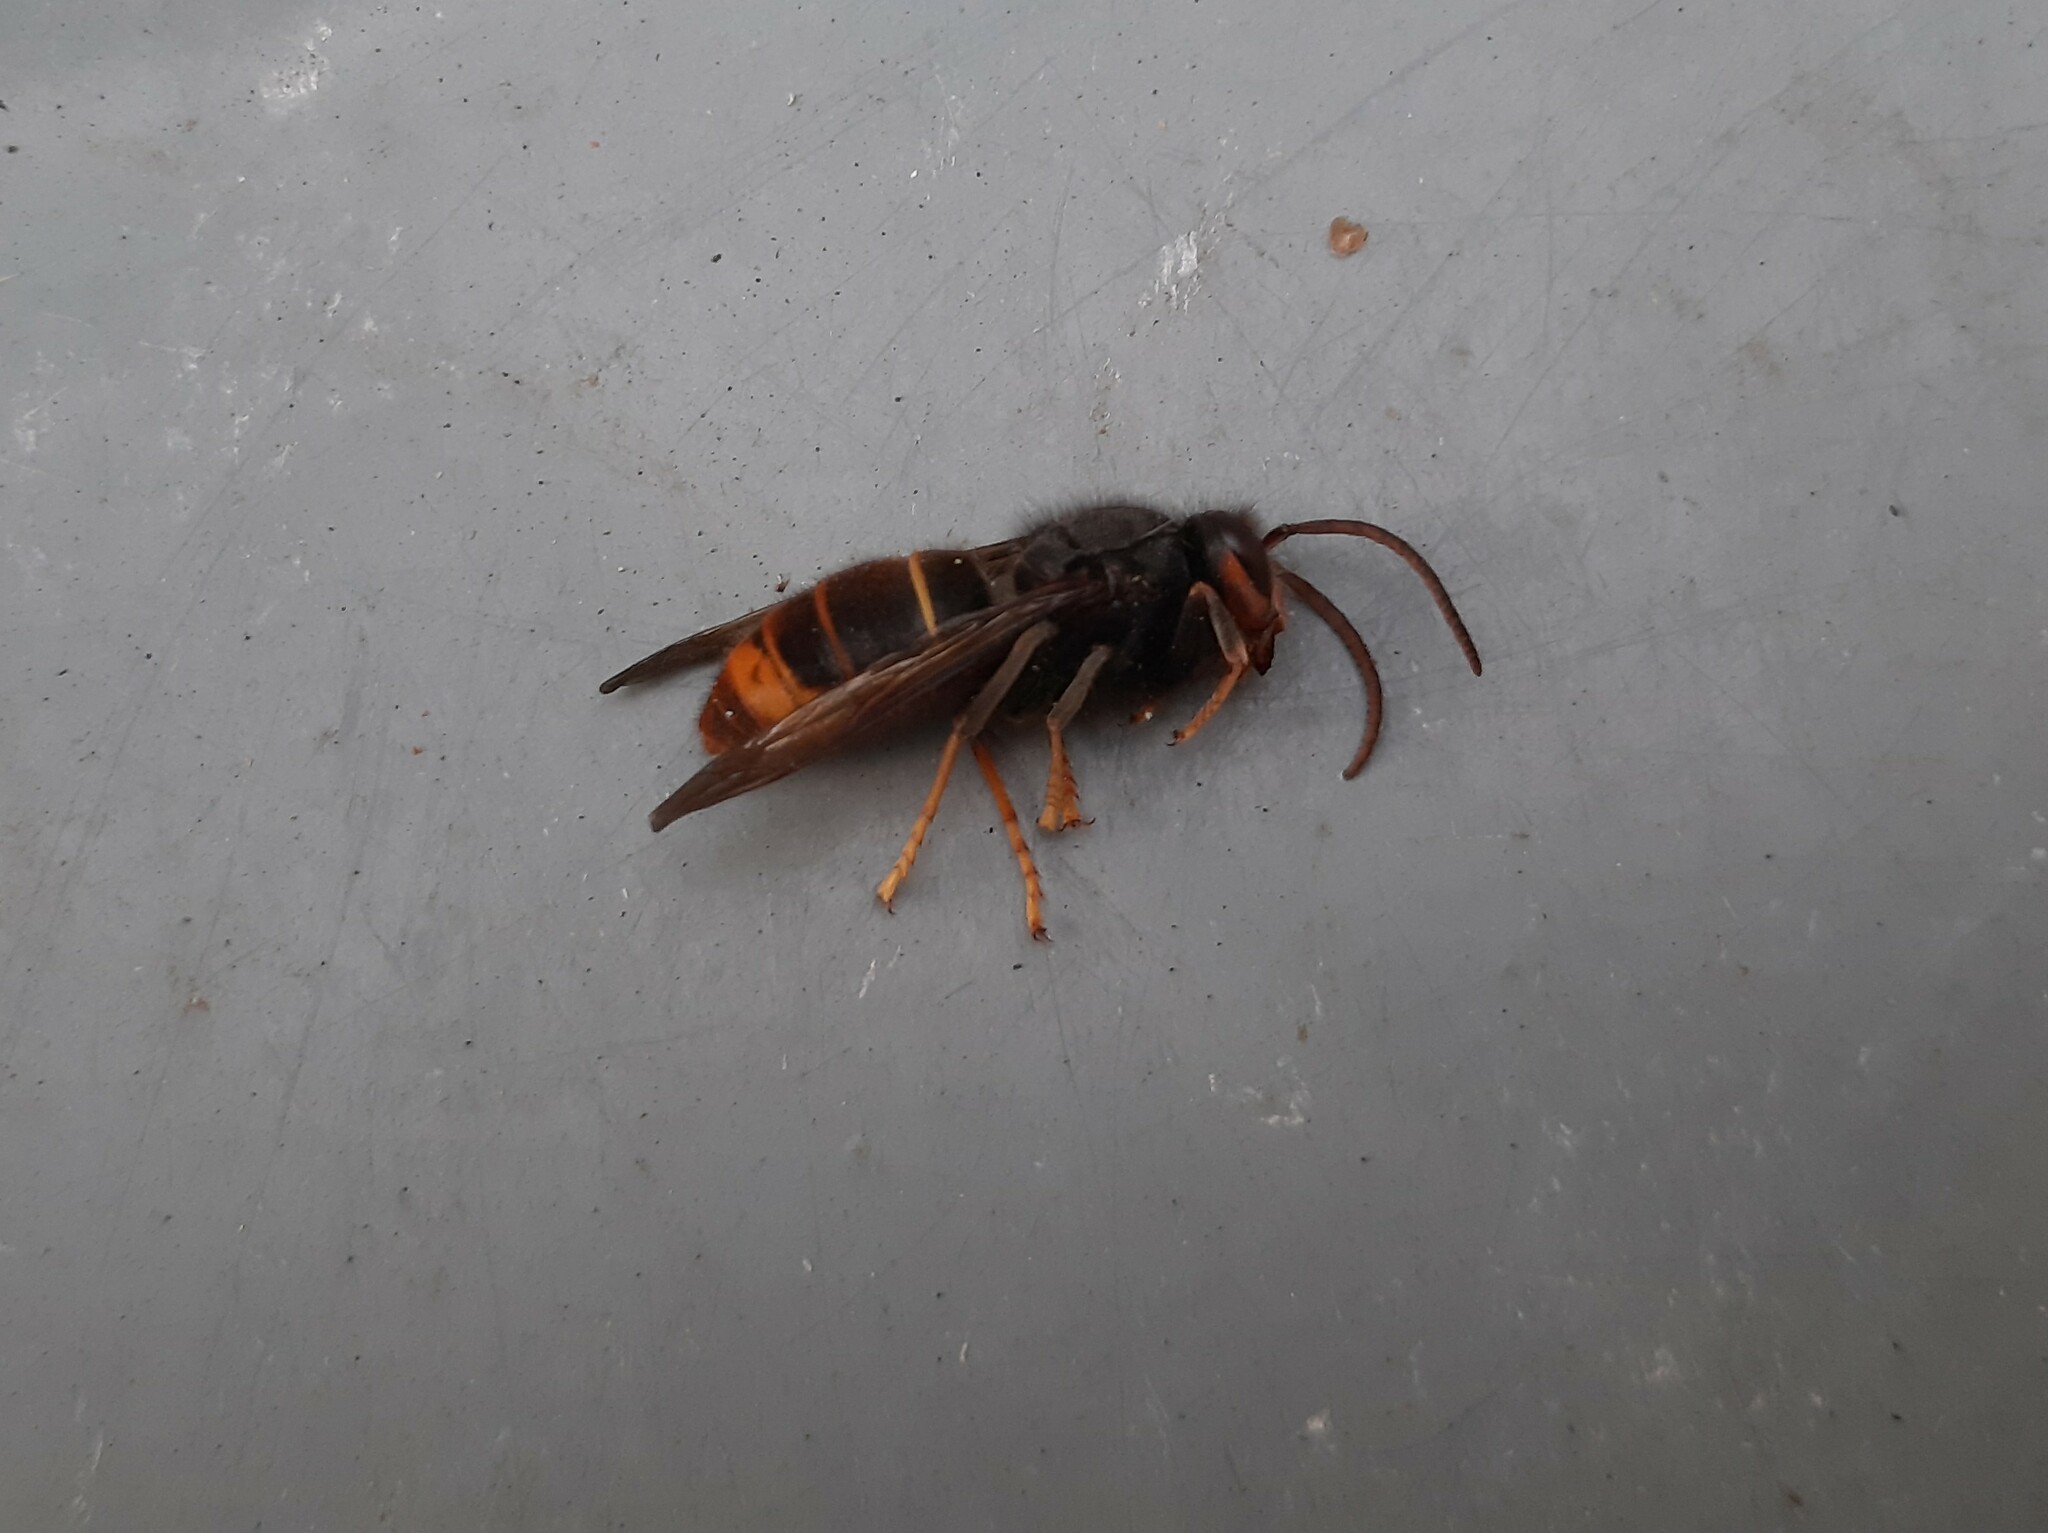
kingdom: Animalia
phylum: Arthropoda
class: Insecta
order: Hymenoptera
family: Vespidae
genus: Vespa
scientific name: Vespa velutina
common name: Asian hornet
